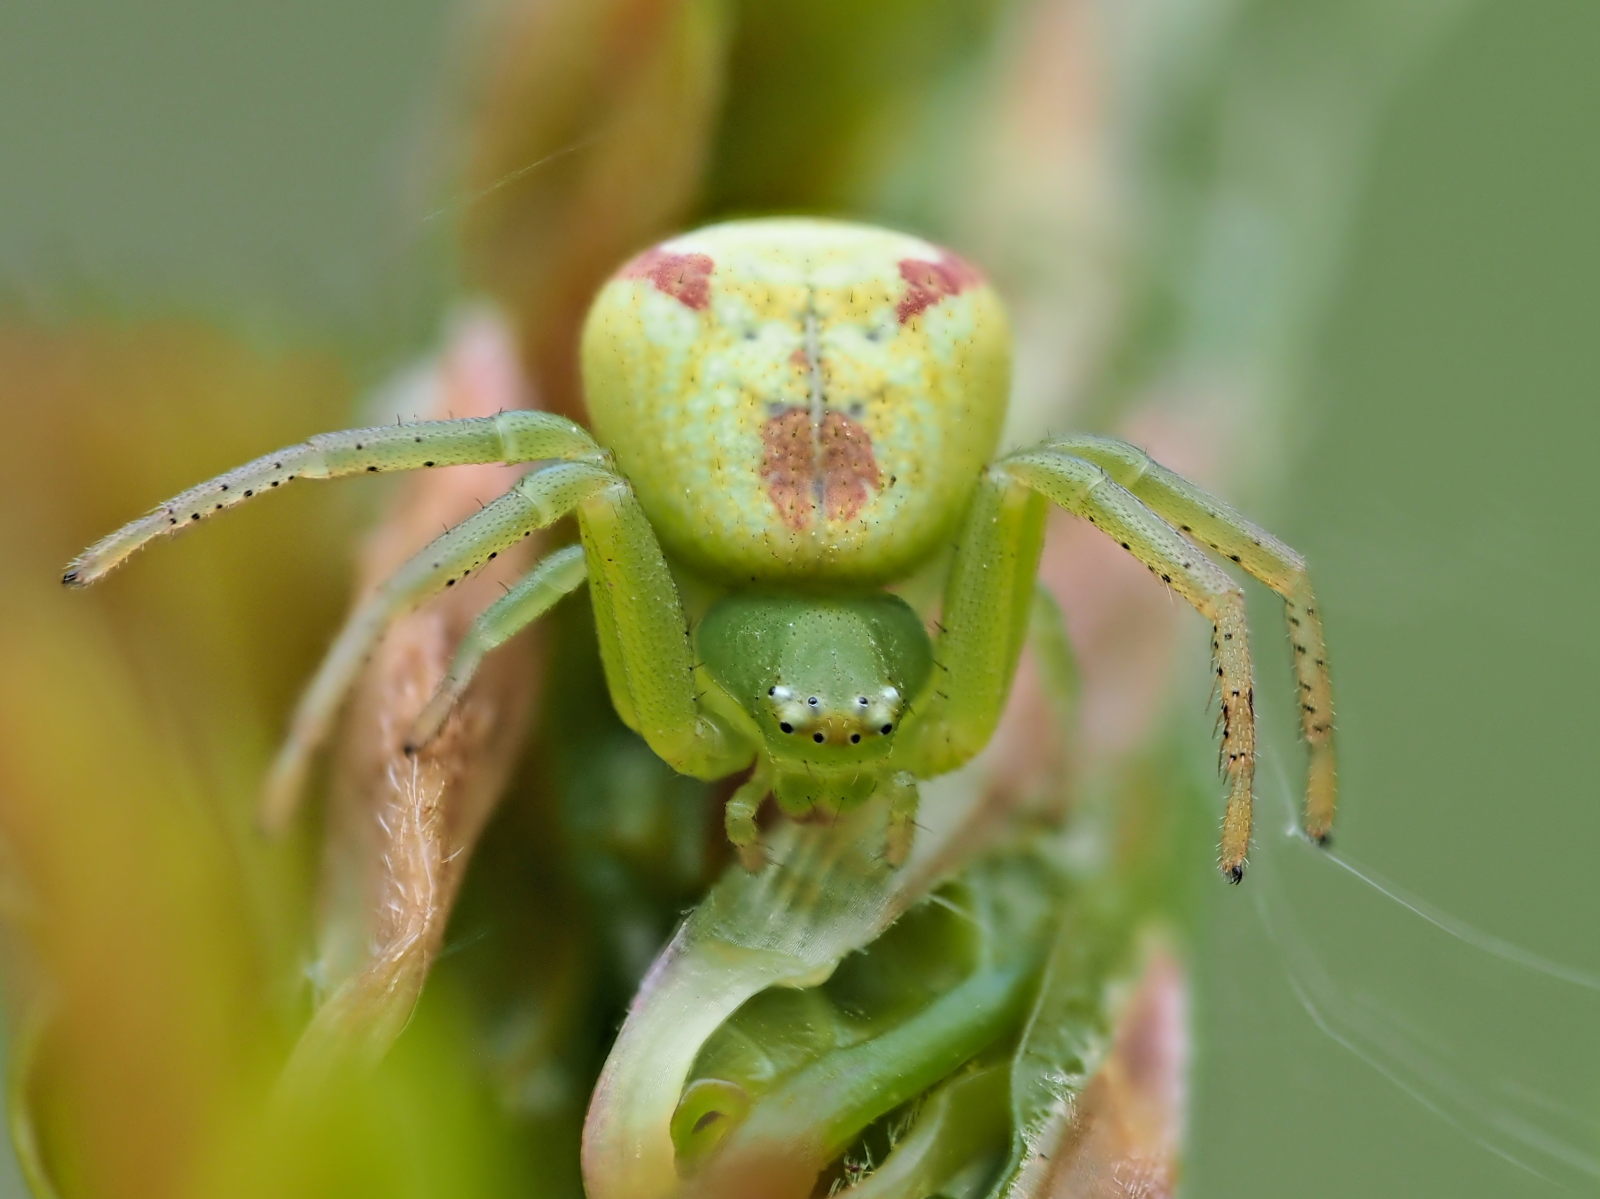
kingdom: Animalia
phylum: Arthropoda
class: Arachnida
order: Araneae
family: Thomisidae
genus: Ebrechtella
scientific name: Ebrechtella tricuspidata
